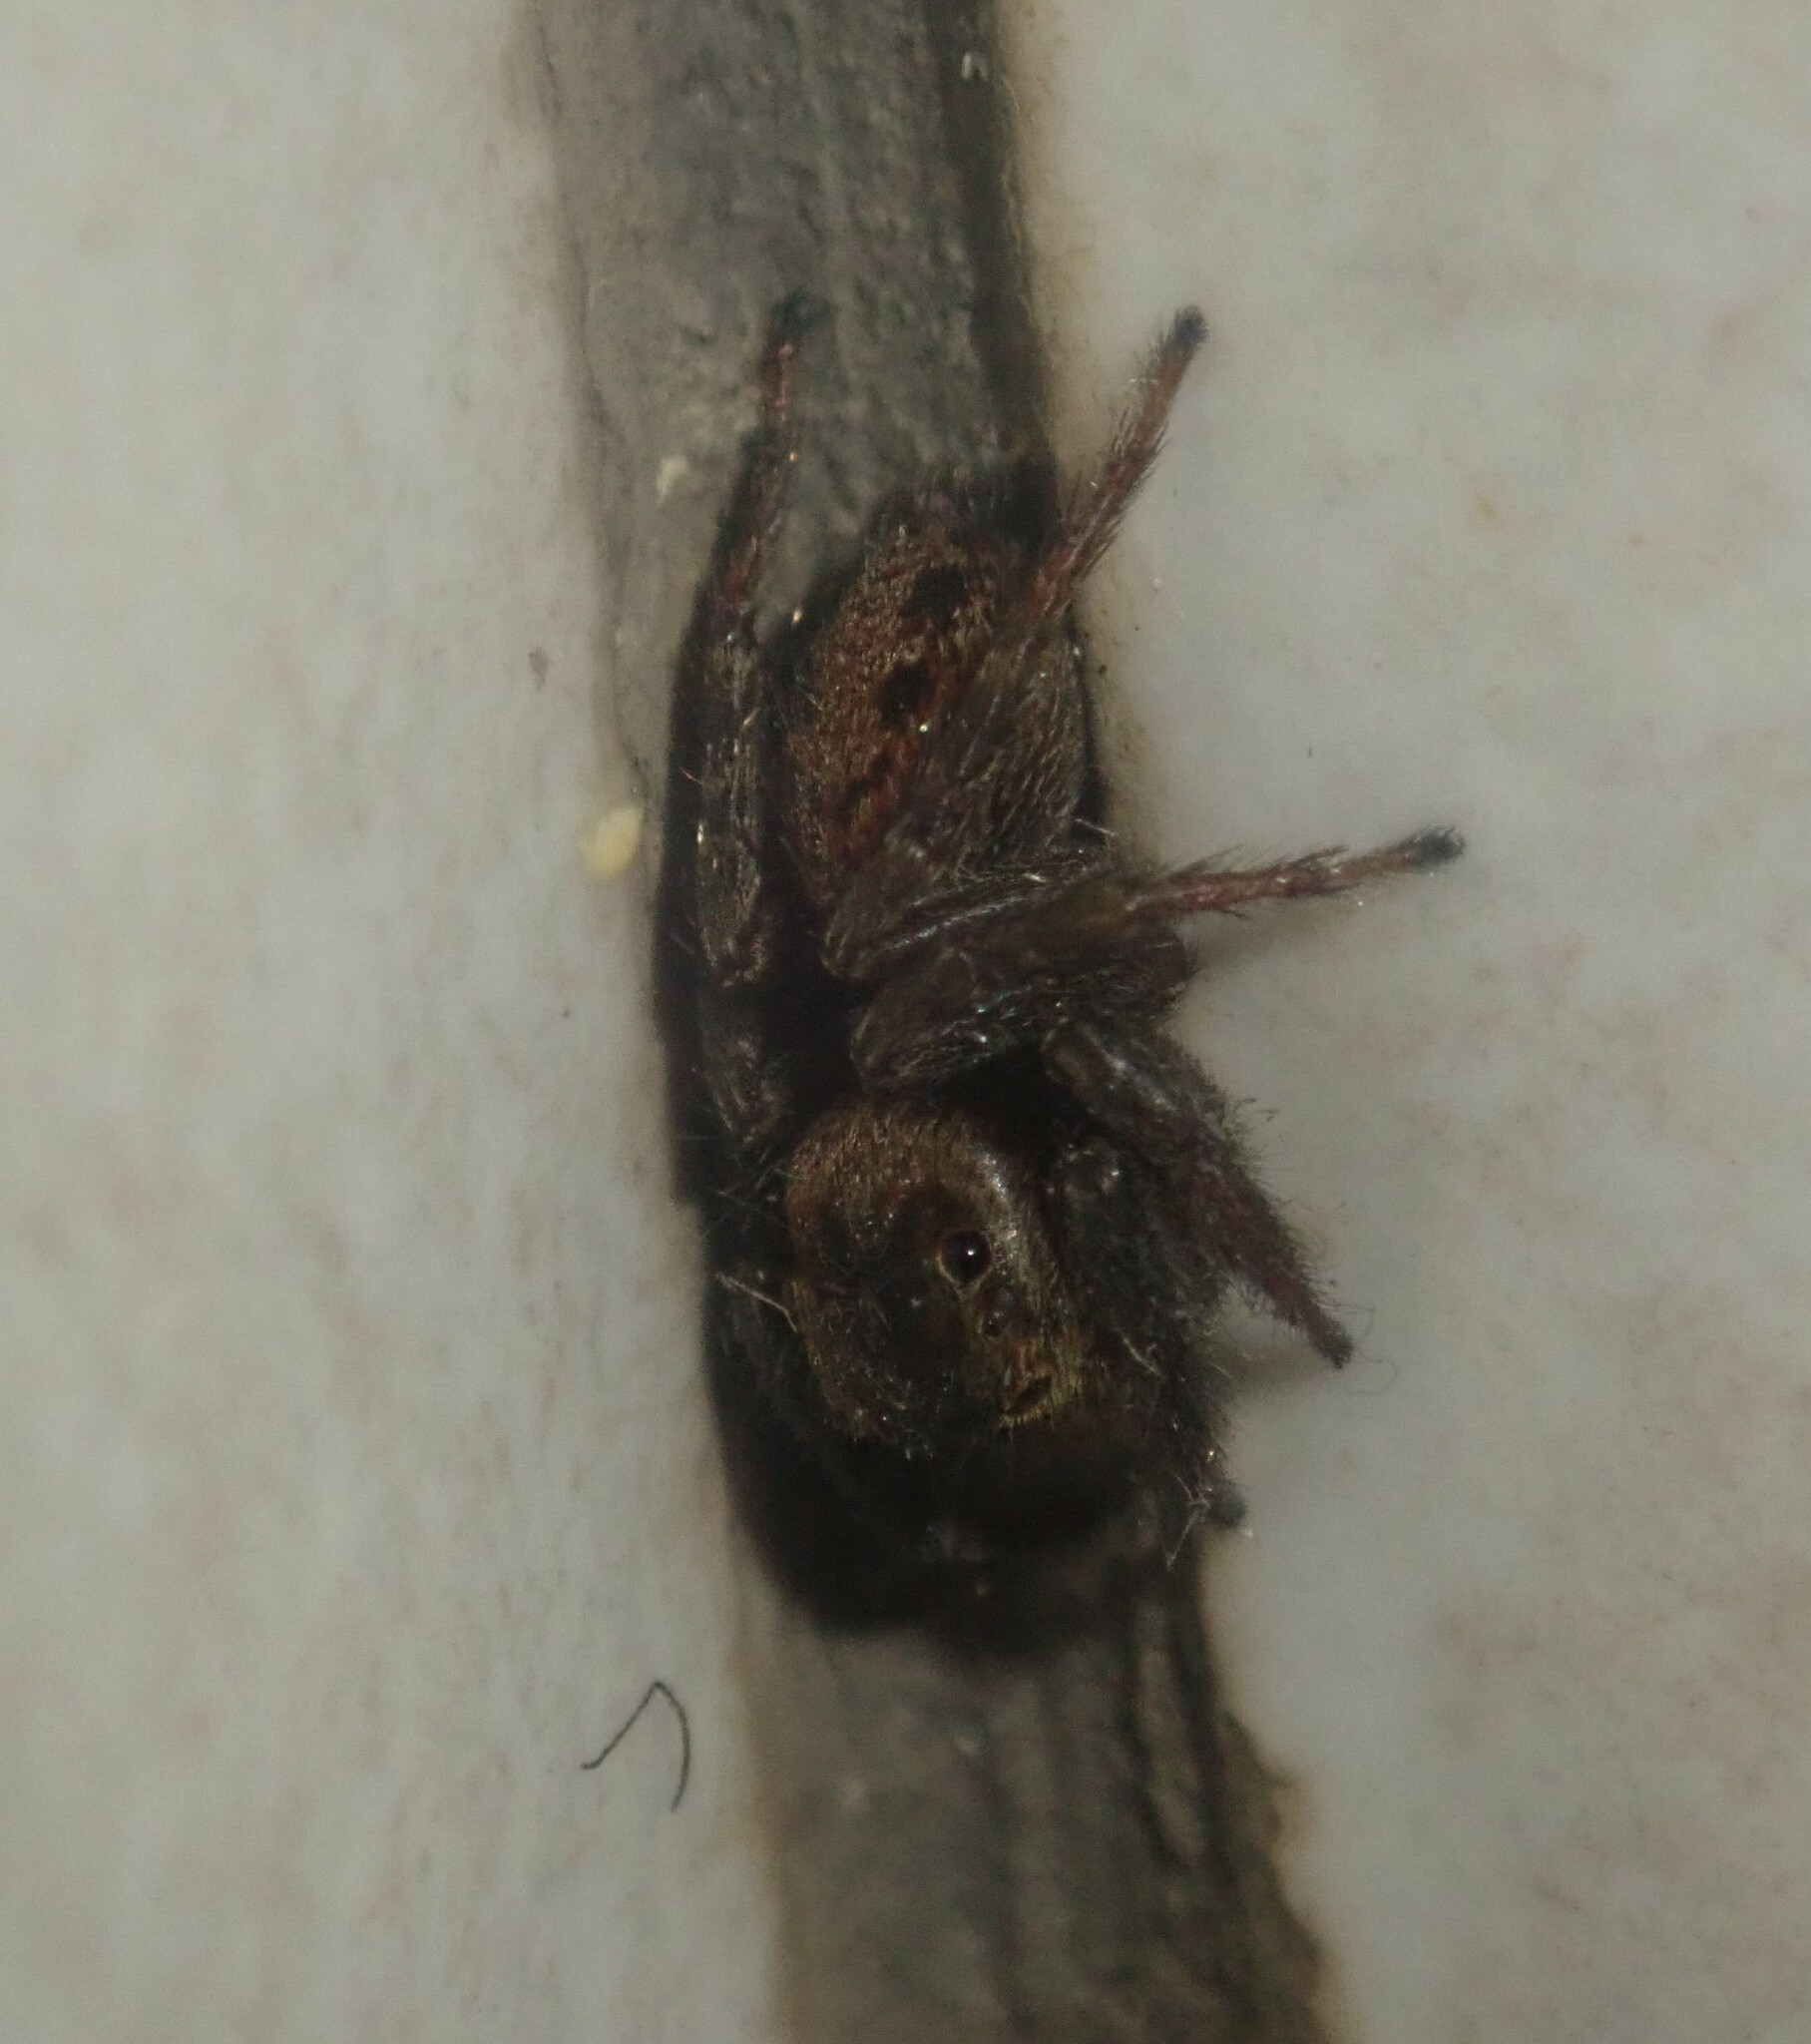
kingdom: Animalia
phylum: Arthropoda
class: Arachnida
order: Araneae
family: Salticidae
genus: Hasarius
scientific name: Hasarius adansoni
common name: Jumping spider
